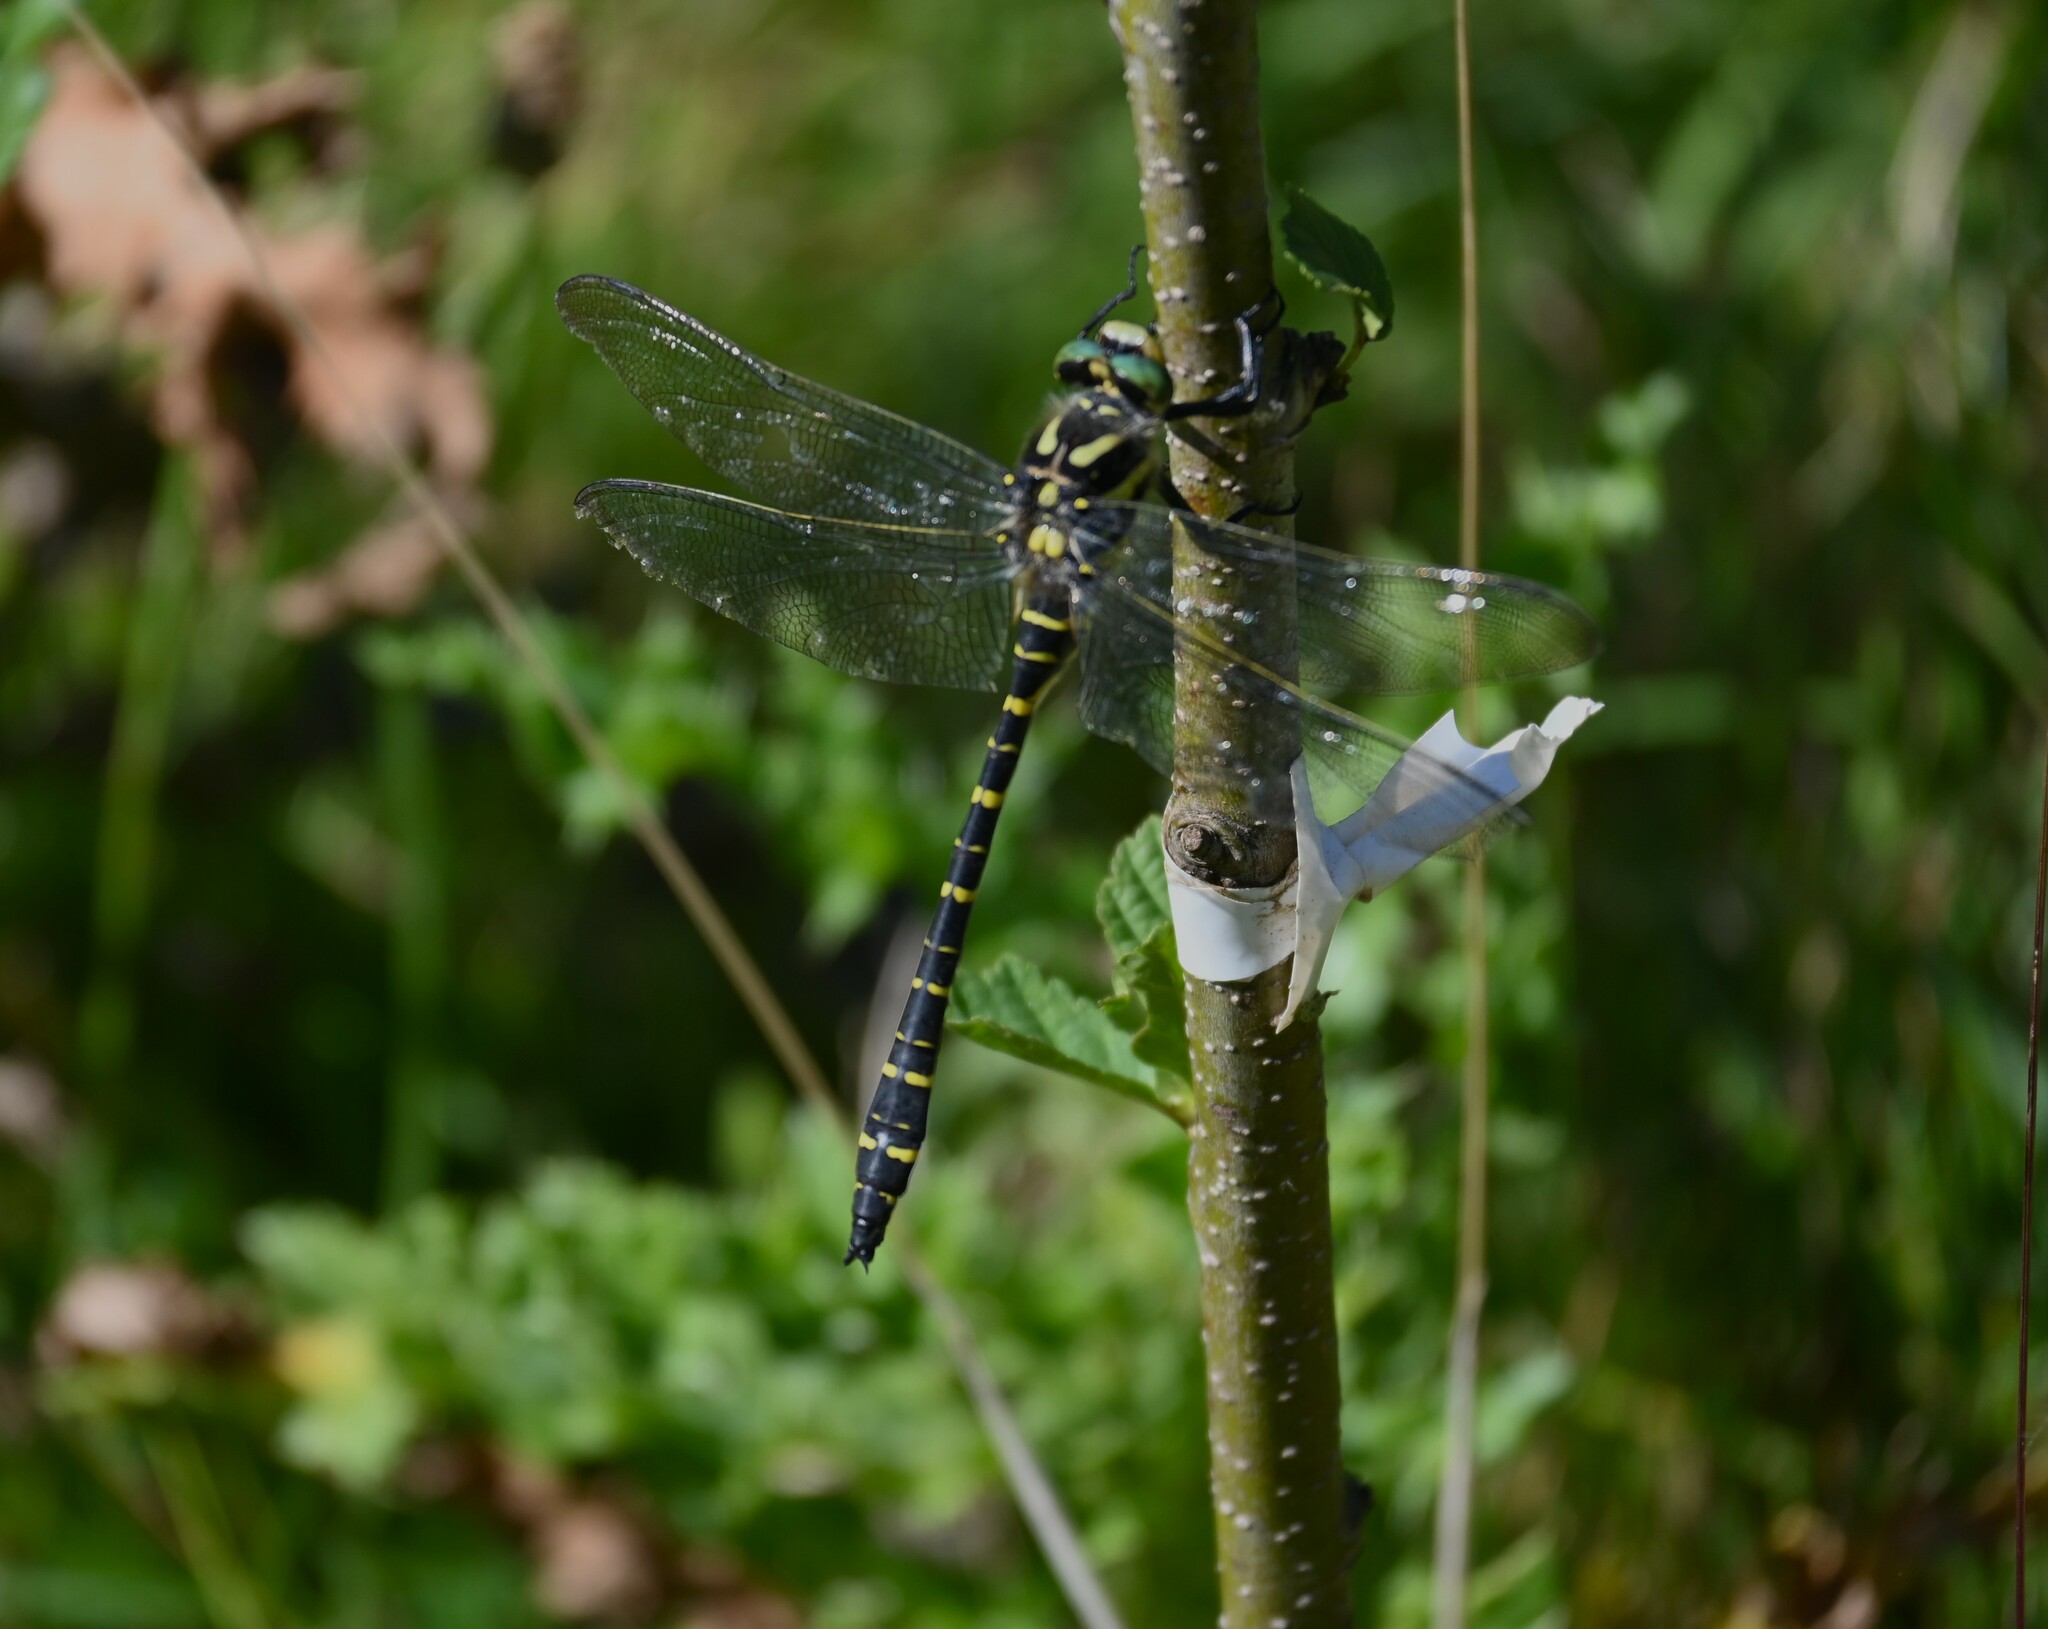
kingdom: Animalia
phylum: Arthropoda
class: Insecta
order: Odonata
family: Cordulegastridae
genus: Cordulegaster
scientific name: Cordulegaster boltonii
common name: Golden-ringed dragonfly
